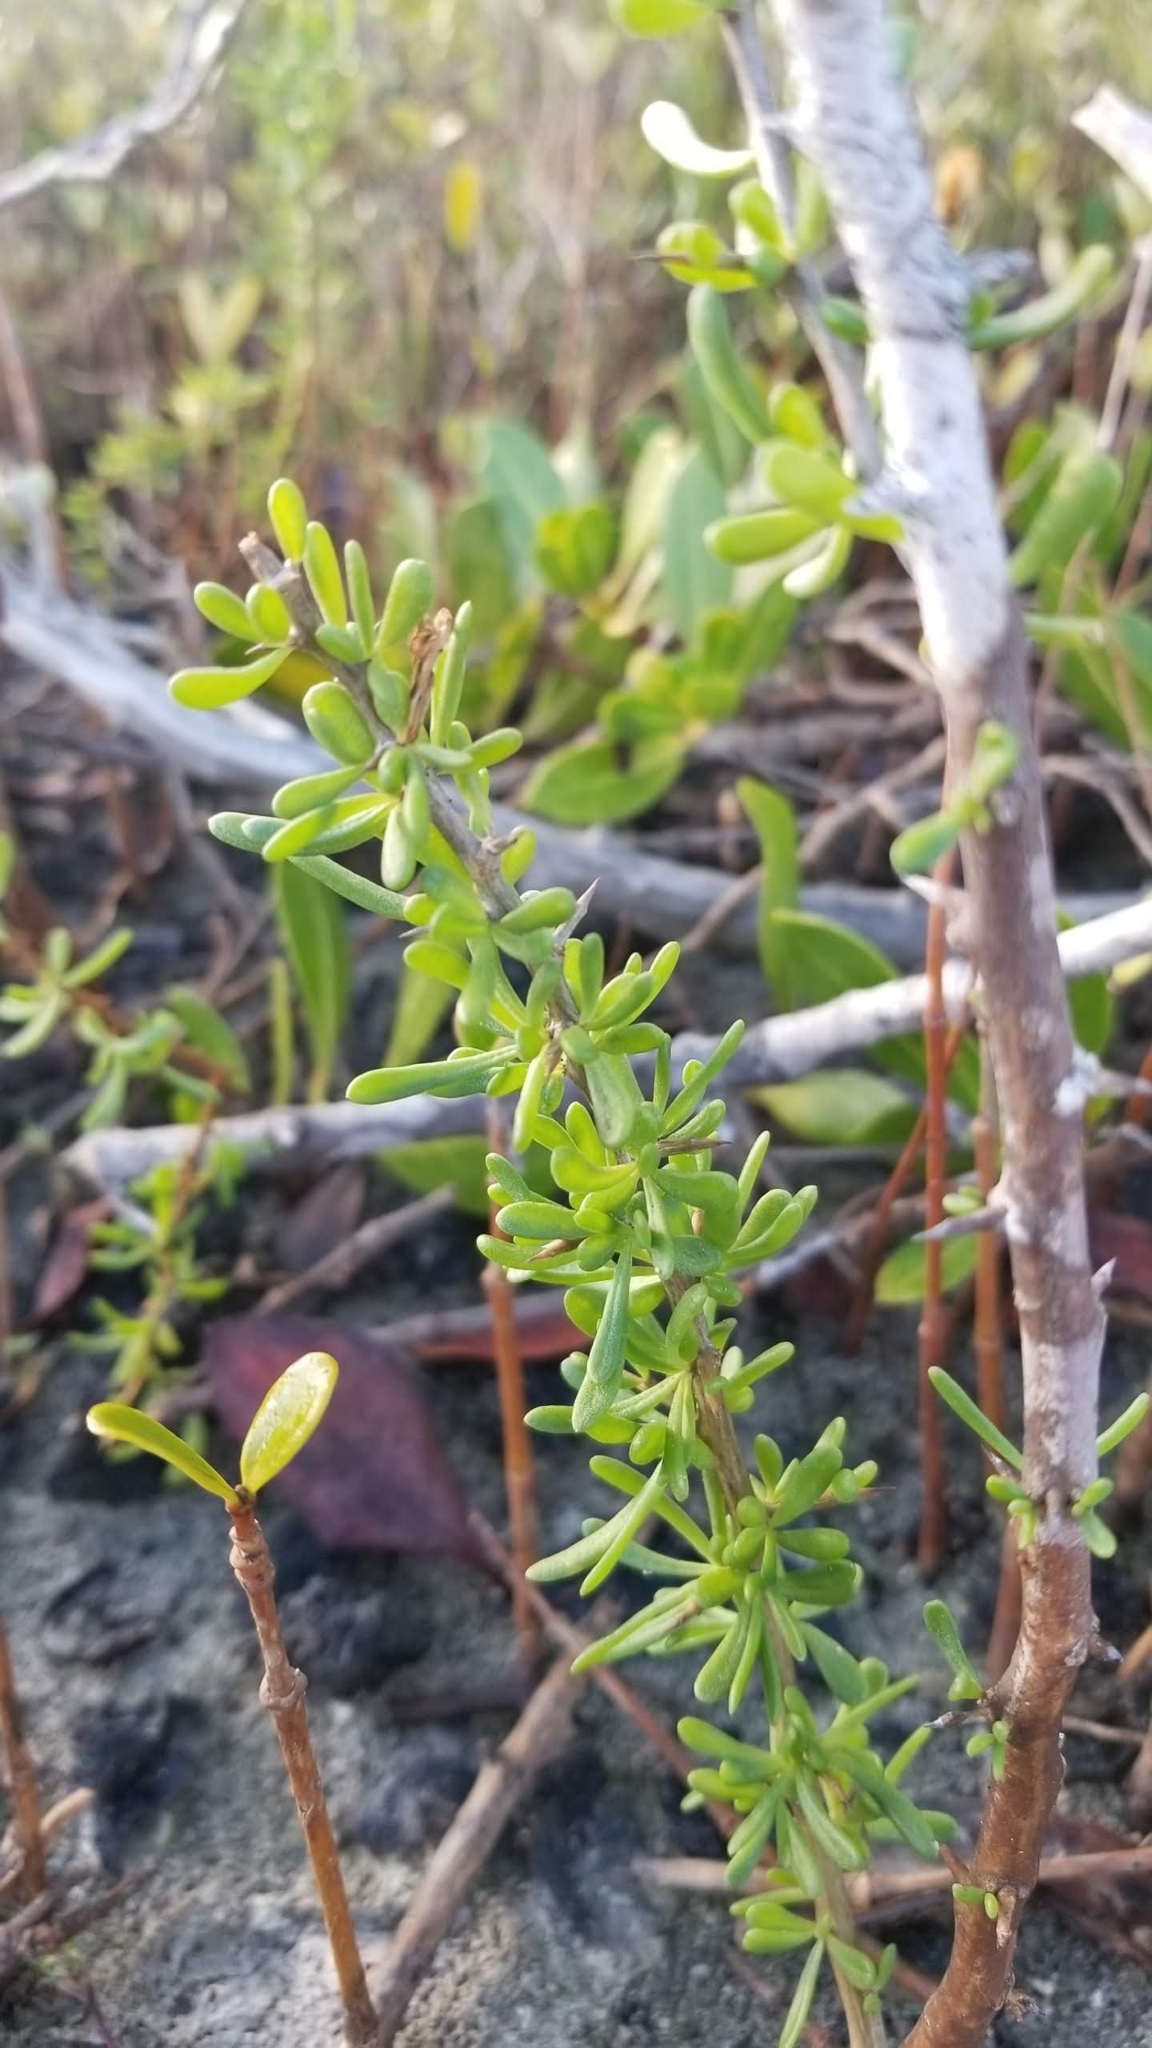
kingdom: Plantae
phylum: Tracheophyta
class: Magnoliopsida
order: Solanales
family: Solanaceae
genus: Lycium
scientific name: Lycium carolinianum
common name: Christmasberry
